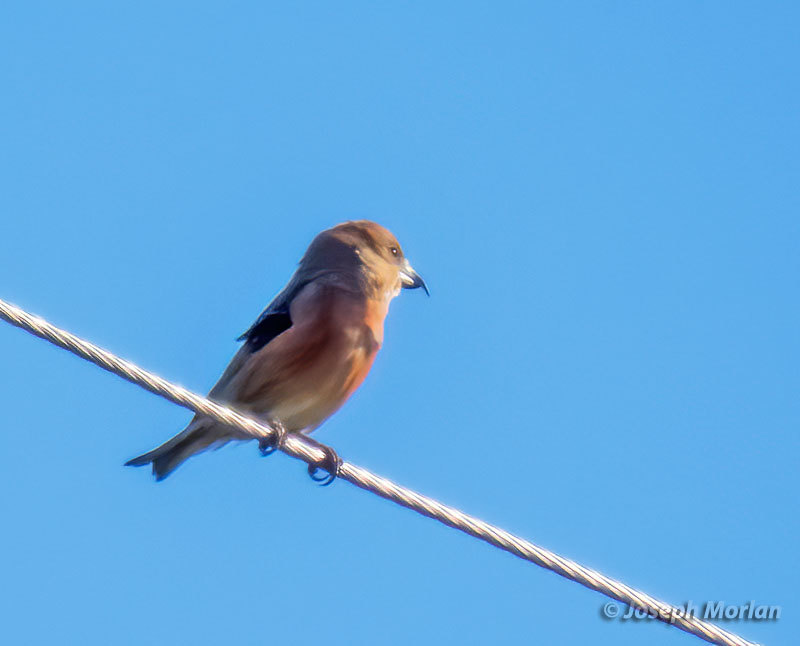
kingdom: Animalia
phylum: Chordata
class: Aves
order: Passeriformes
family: Fringillidae
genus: Loxia
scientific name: Loxia curvirostra
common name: Red crossbill
